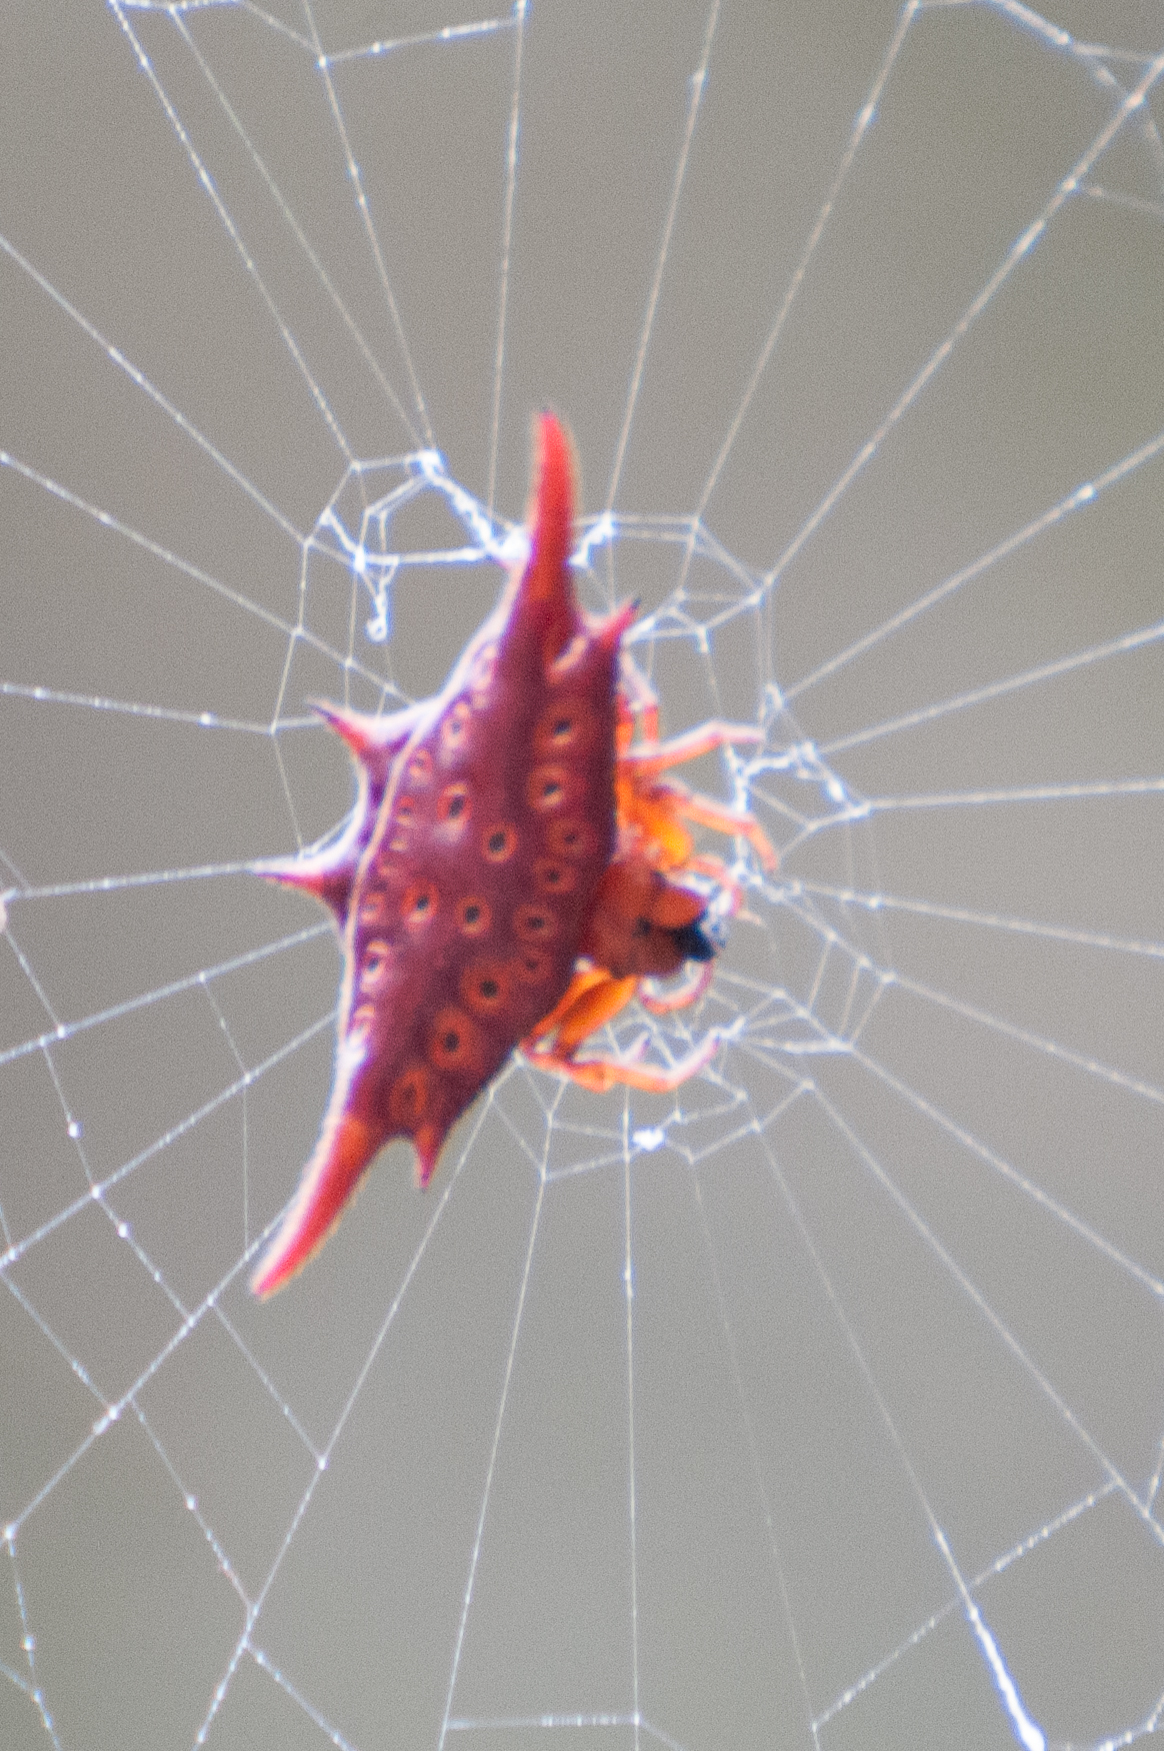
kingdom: Animalia
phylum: Arthropoda
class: Arachnida
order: Araneae
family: Araneidae
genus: Gasteracantha
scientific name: Gasteracantha versicolor
